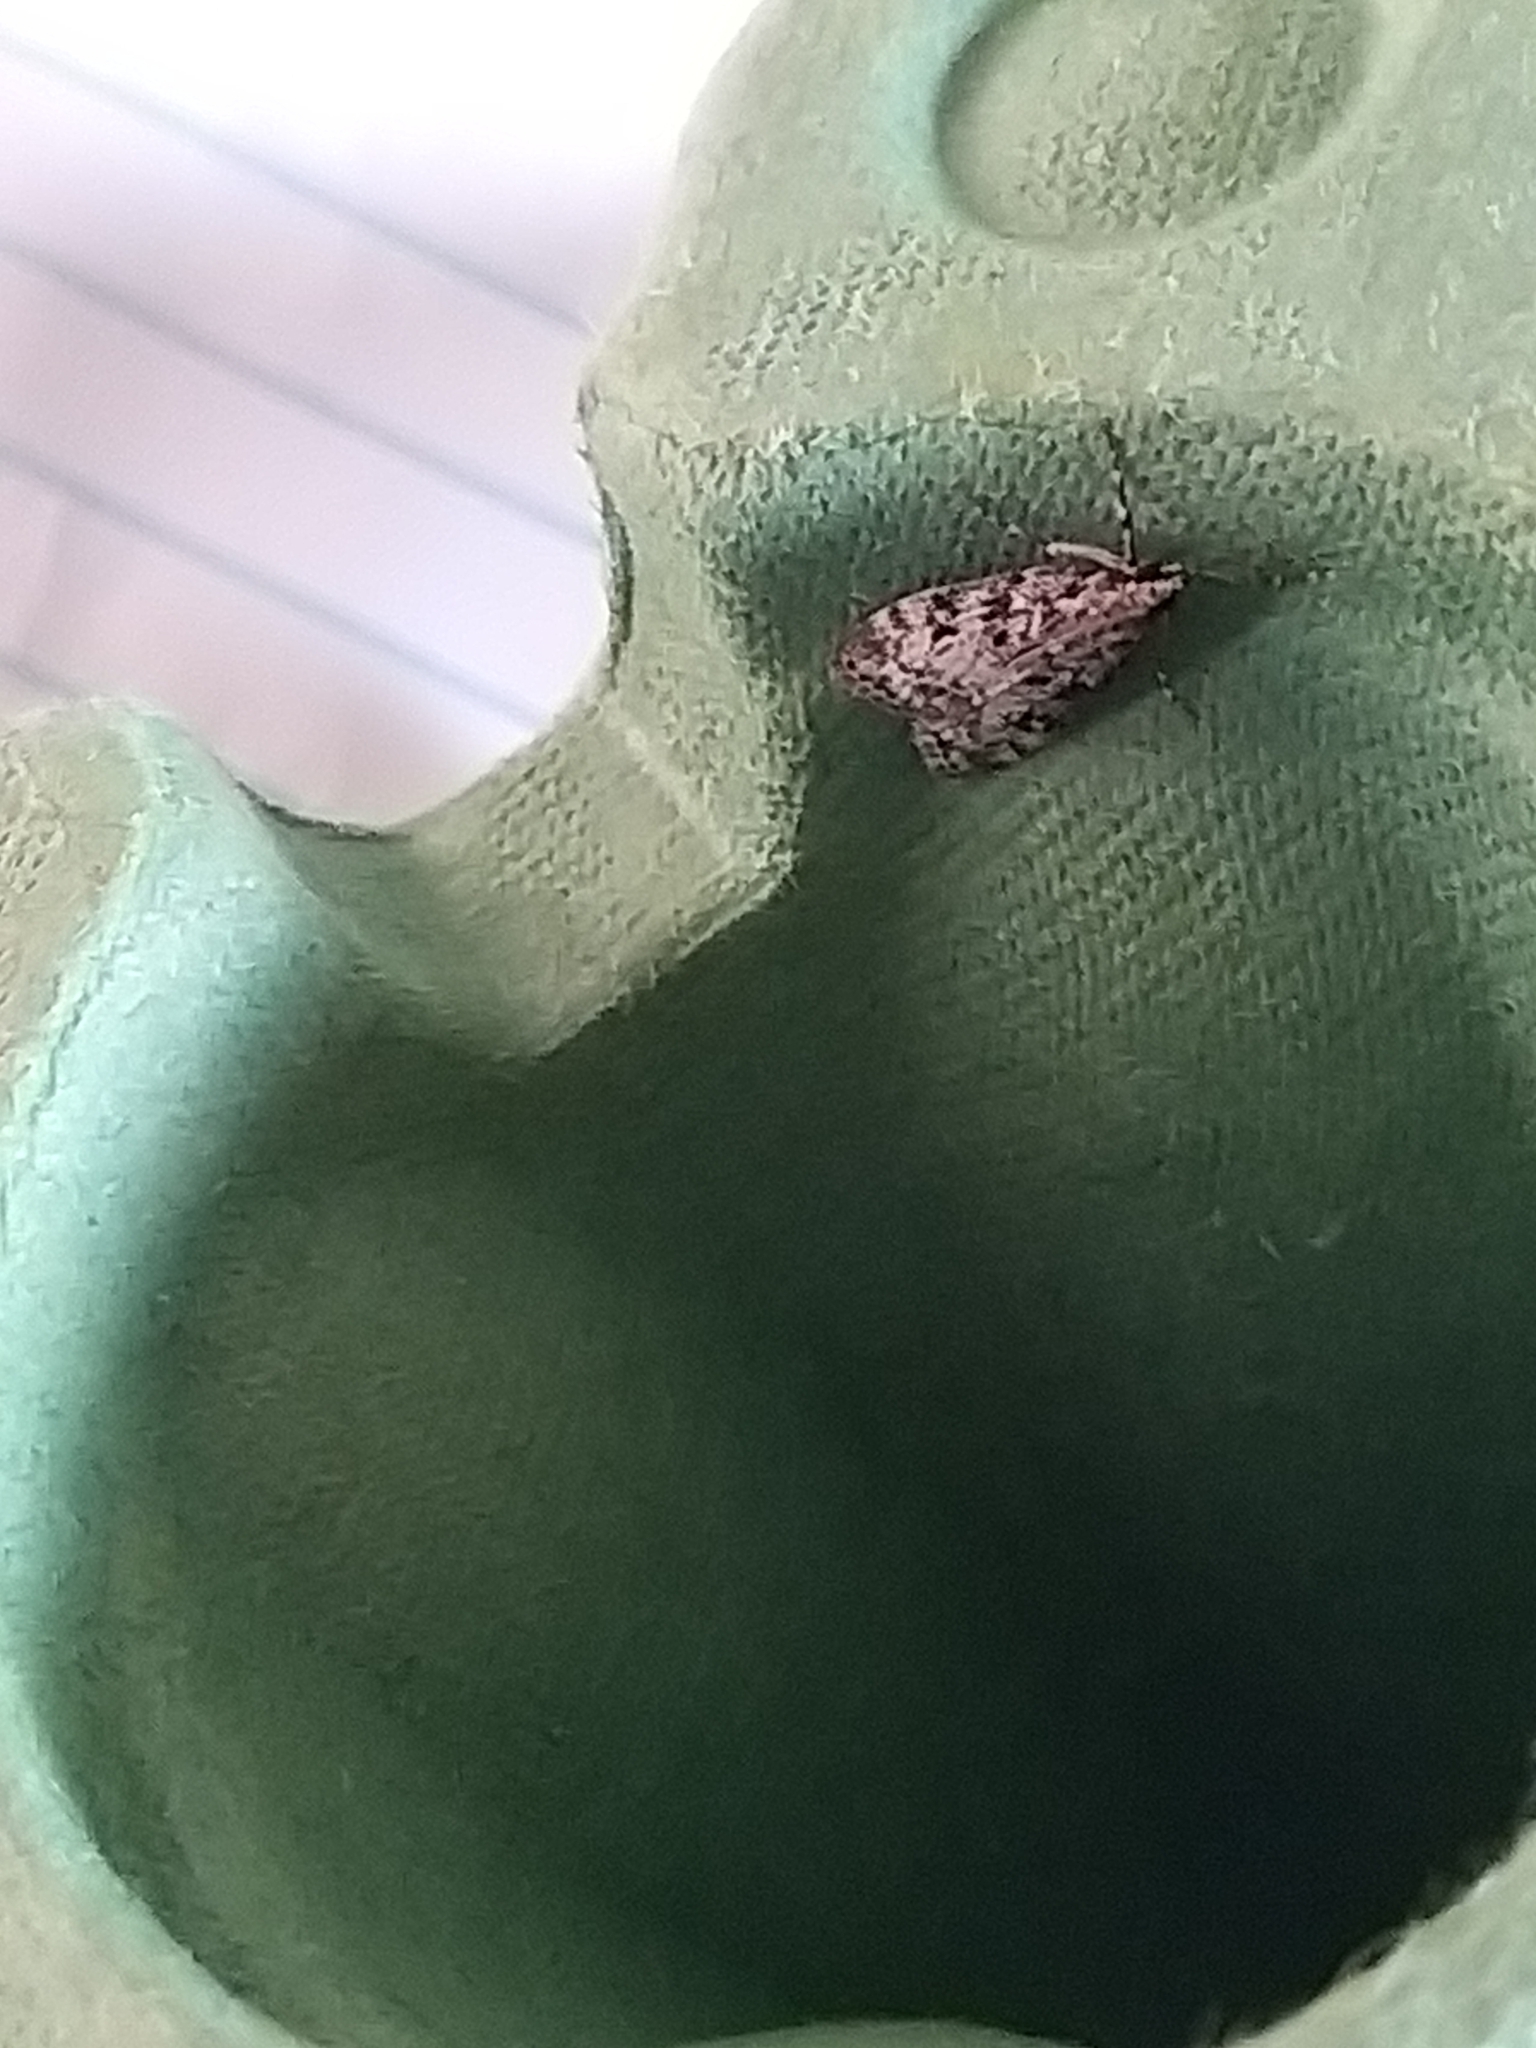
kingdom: Animalia
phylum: Arthropoda
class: Insecta
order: Lepidoptera
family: Crambidae
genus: Eudonia
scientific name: Eudonia lacustrata
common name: Little grey
